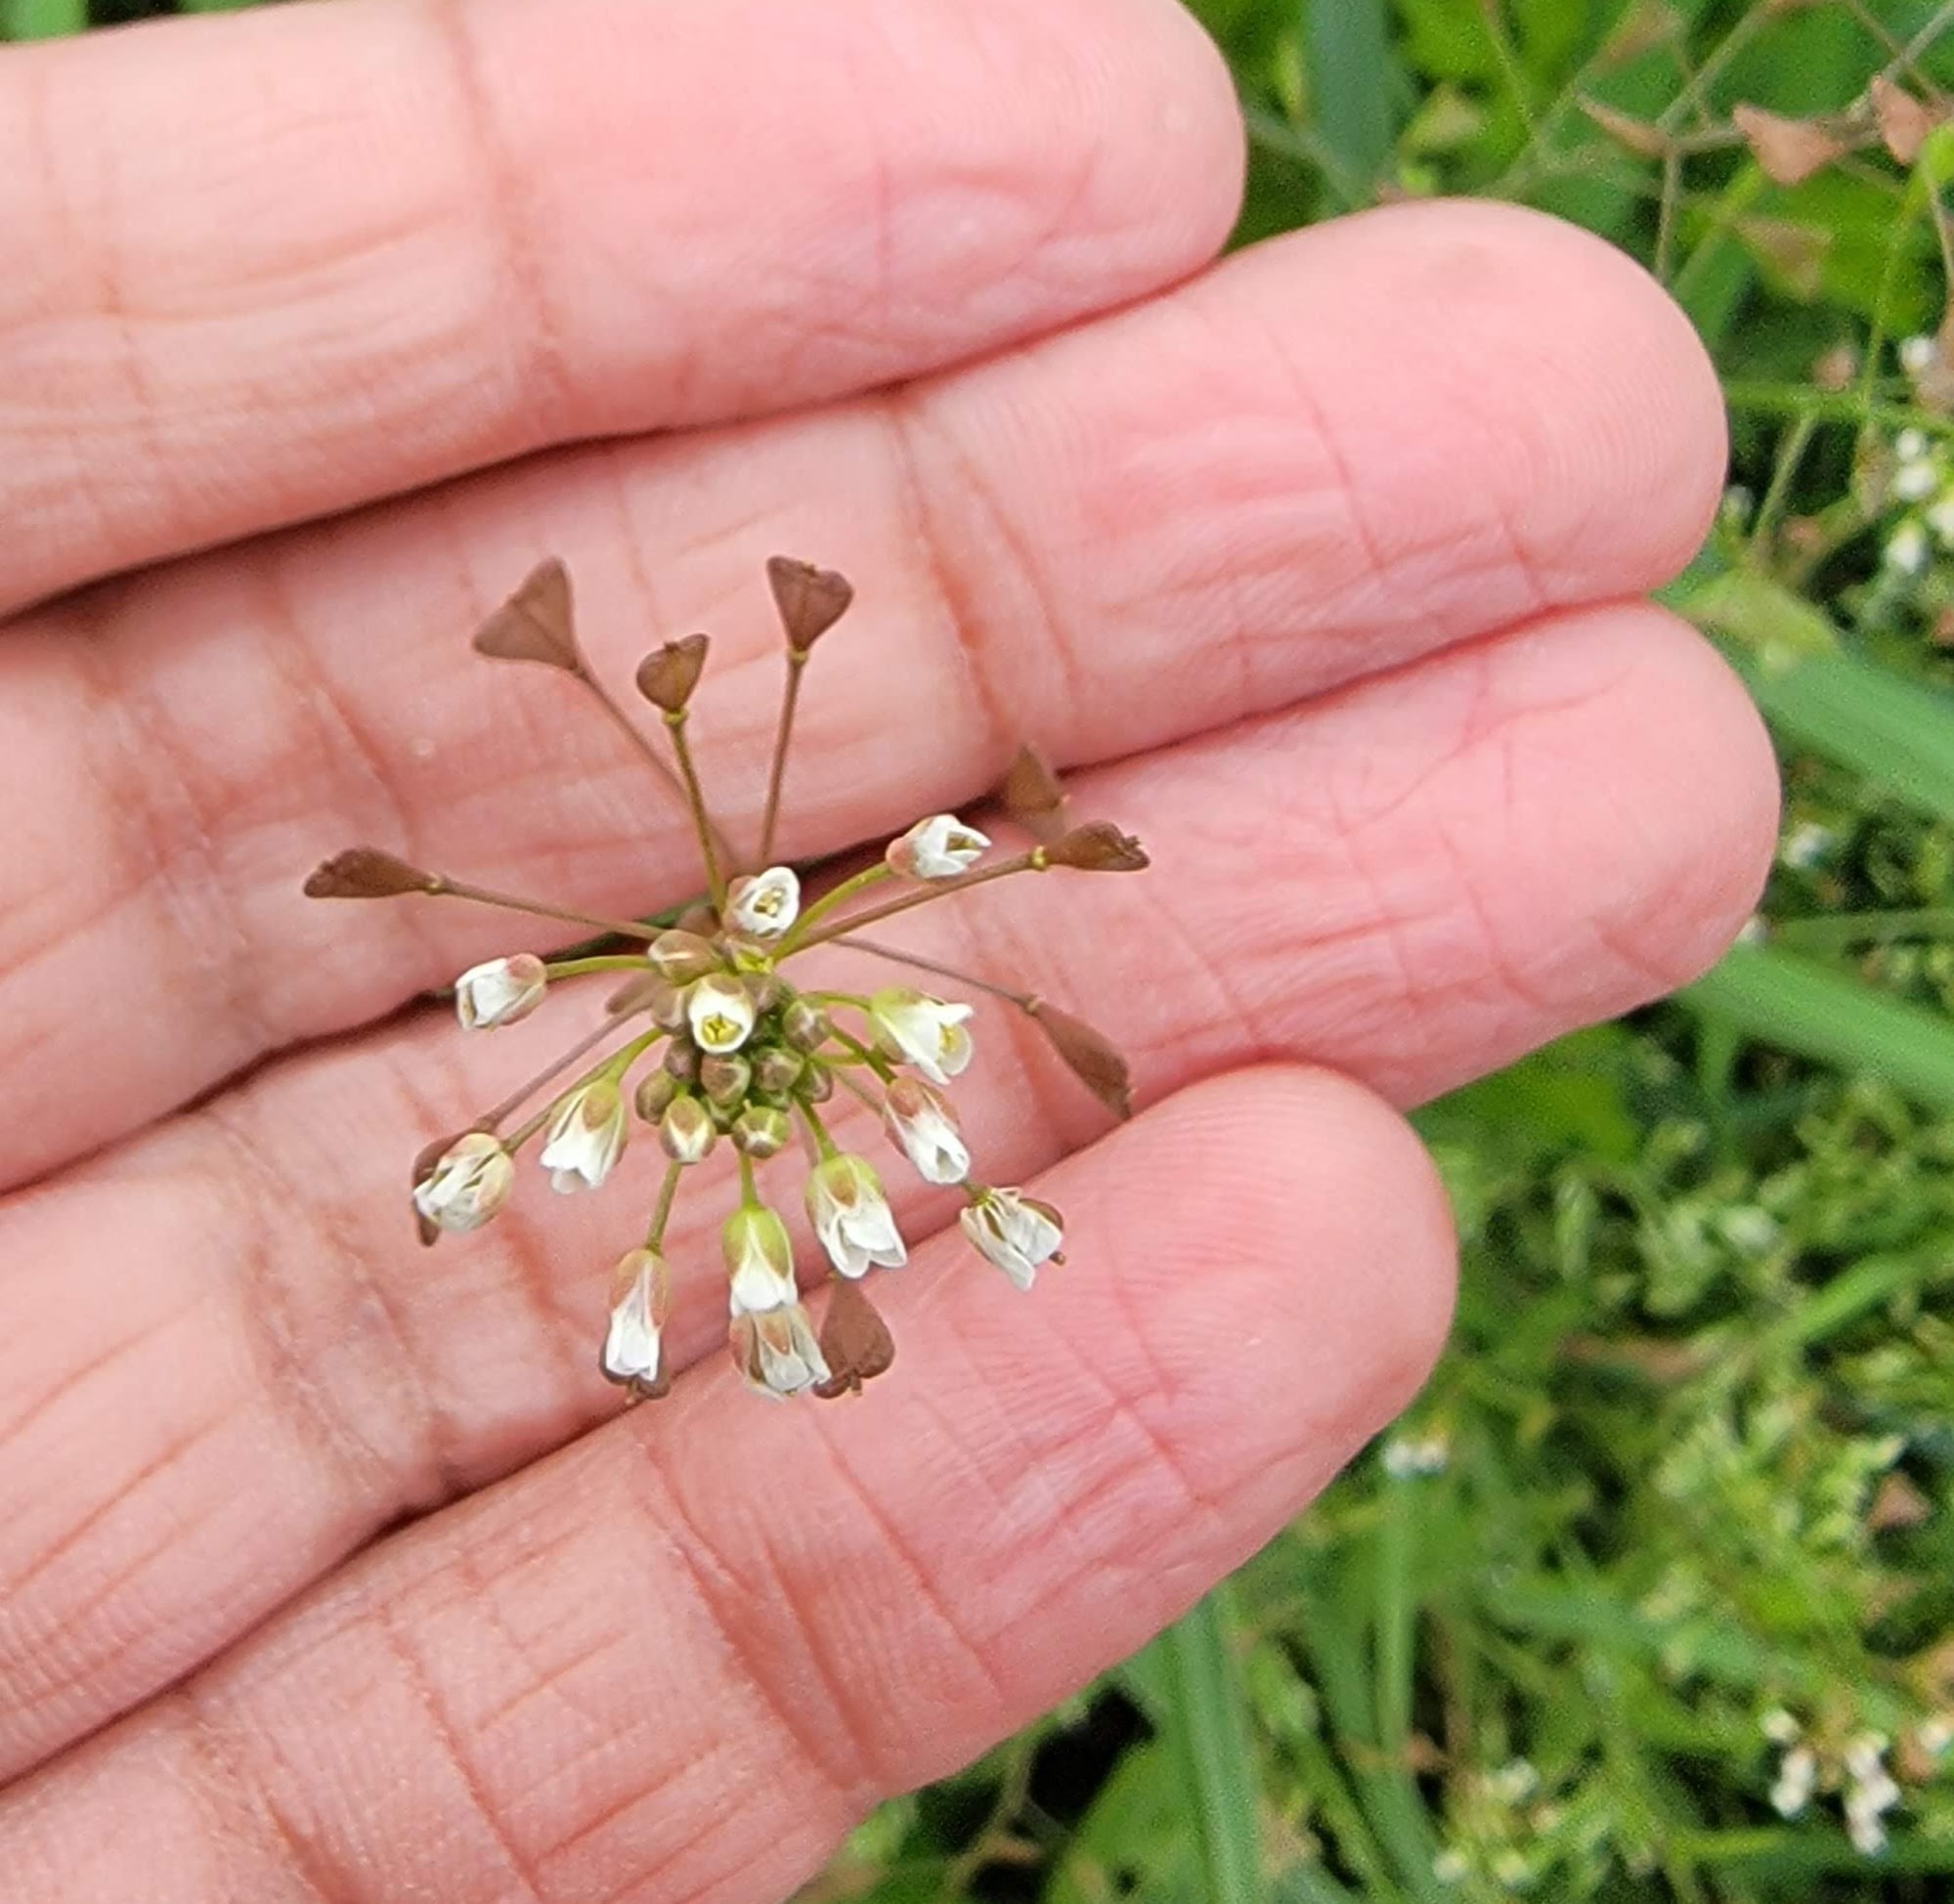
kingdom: Plantae
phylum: Tracheophyta
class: Magnoliopsida
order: Brassicales
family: Brassicaceae
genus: Capsella
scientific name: Capsella bursa-pastoris
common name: Shepherd's purse
